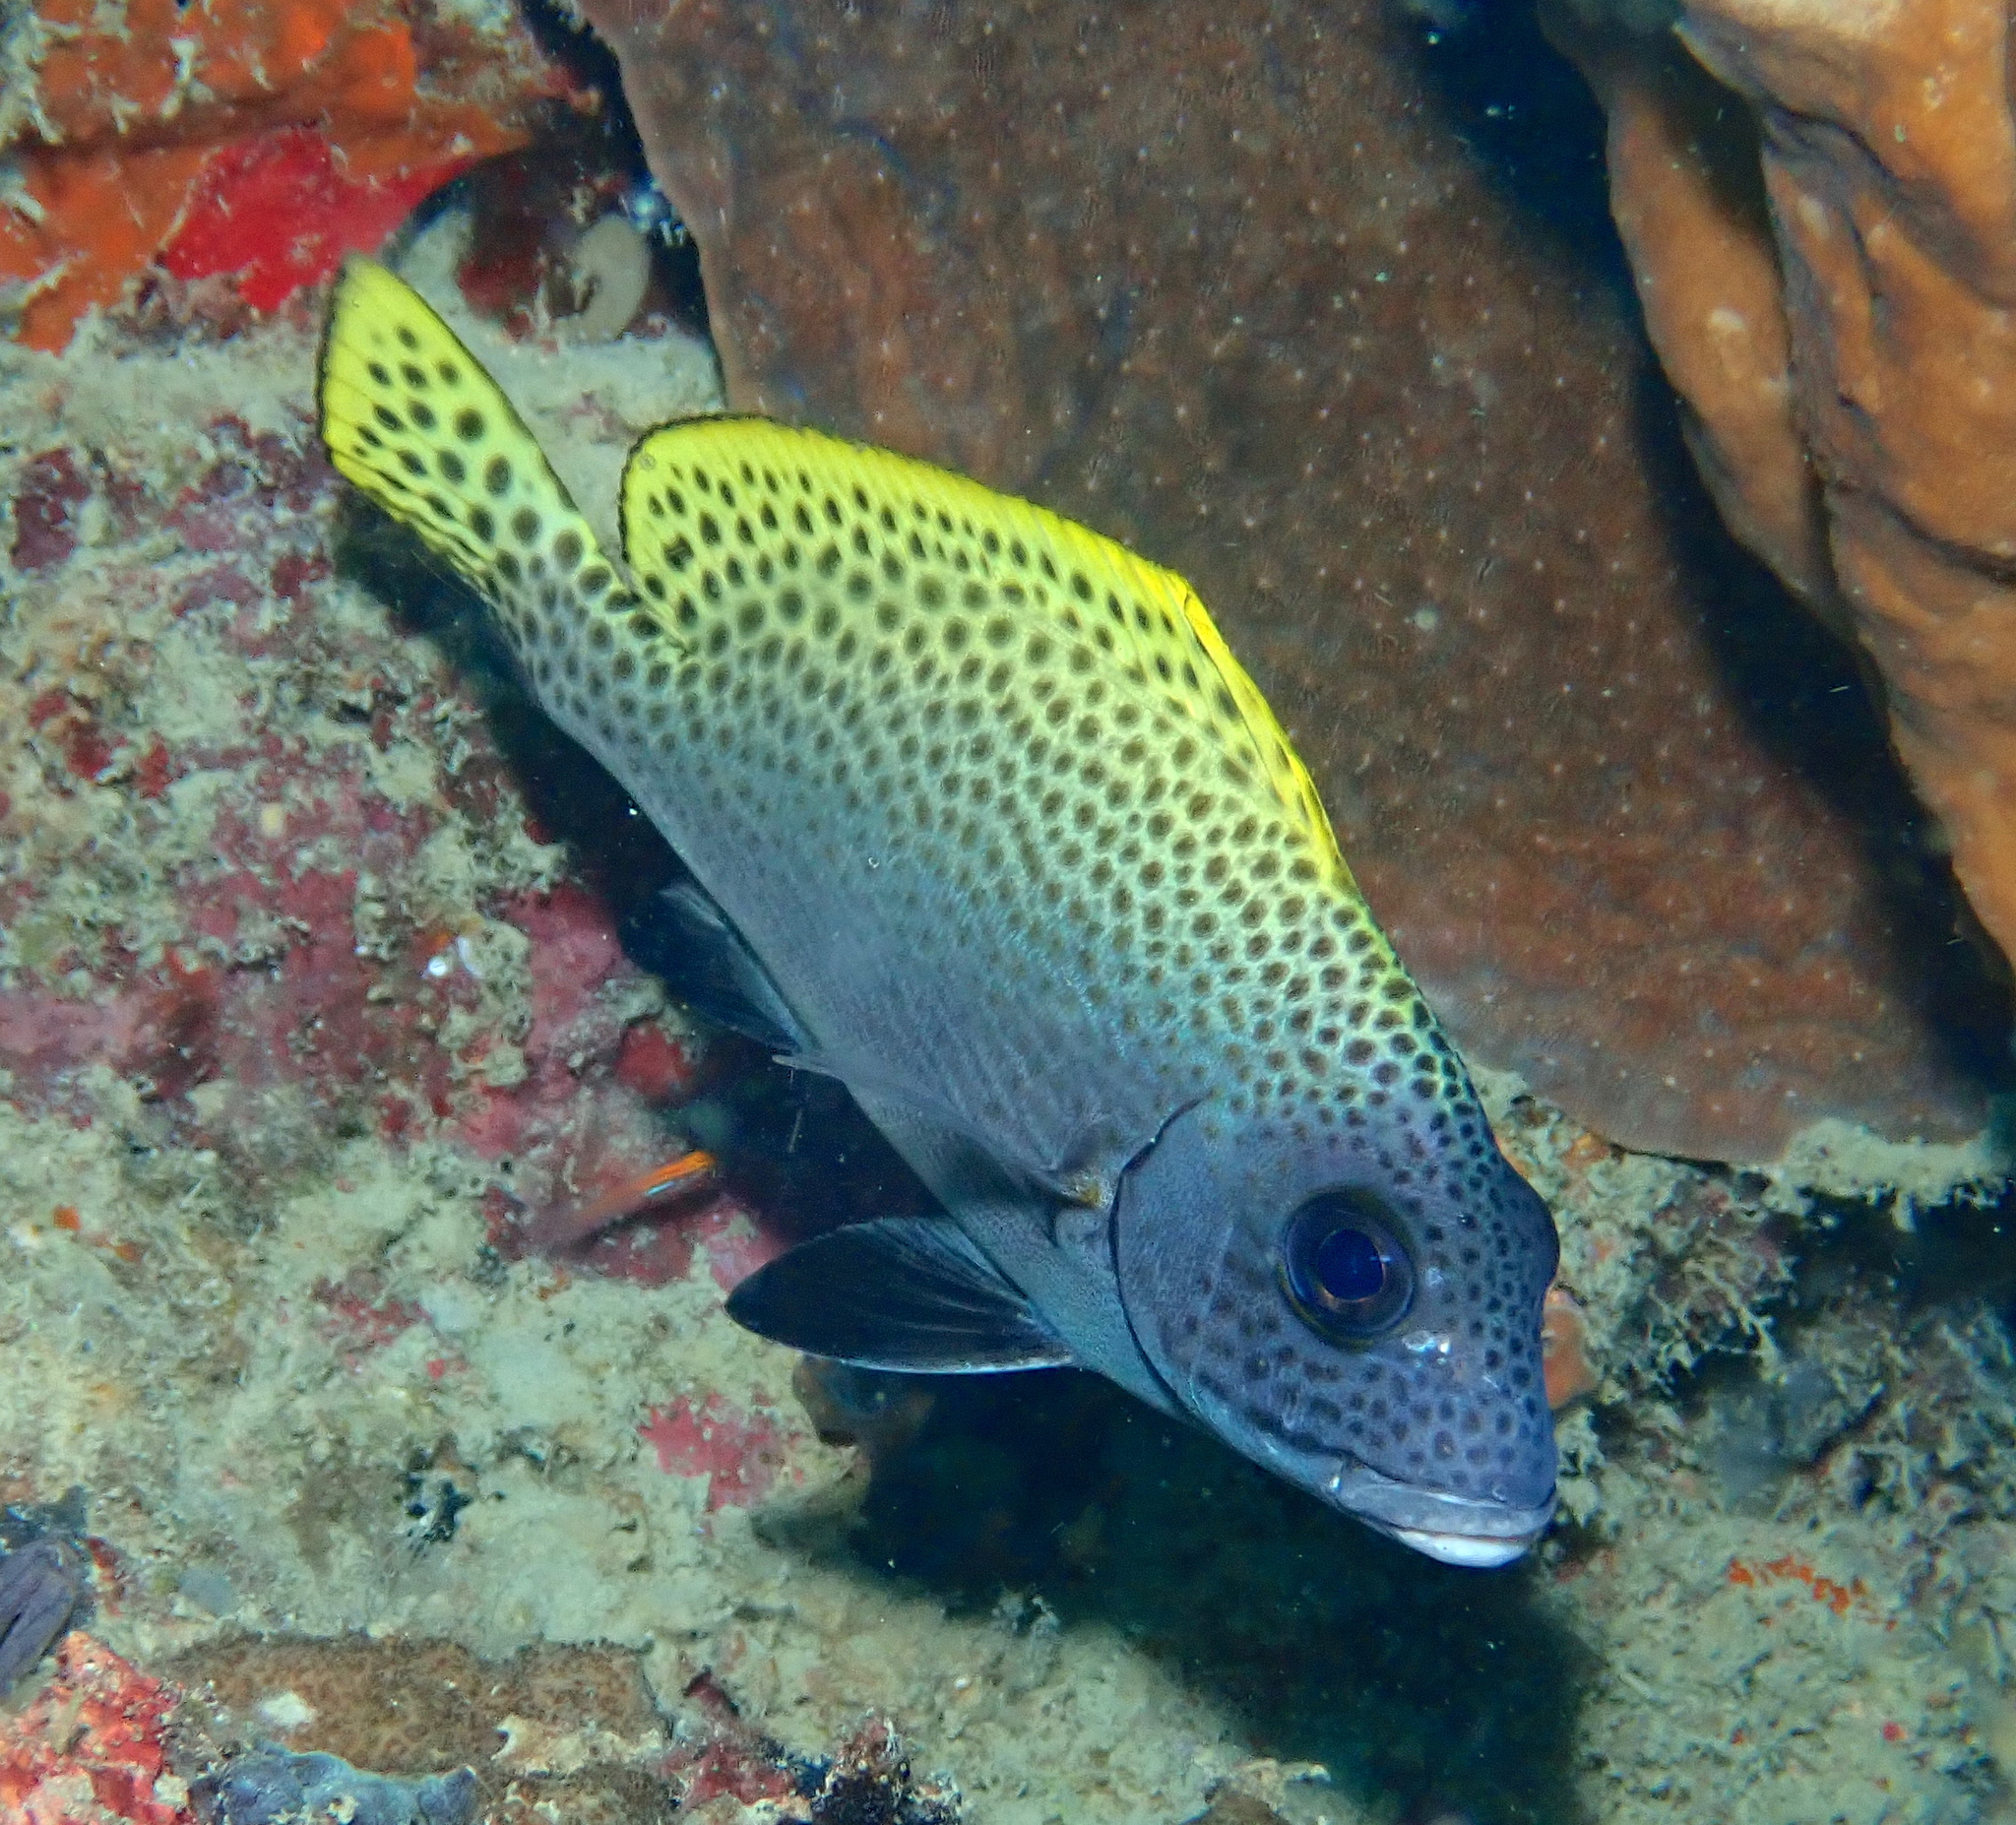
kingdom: Animalia
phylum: Chordata
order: Perciformes
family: Haemulidae
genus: Diagramma
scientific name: Diagramma melanacrum
